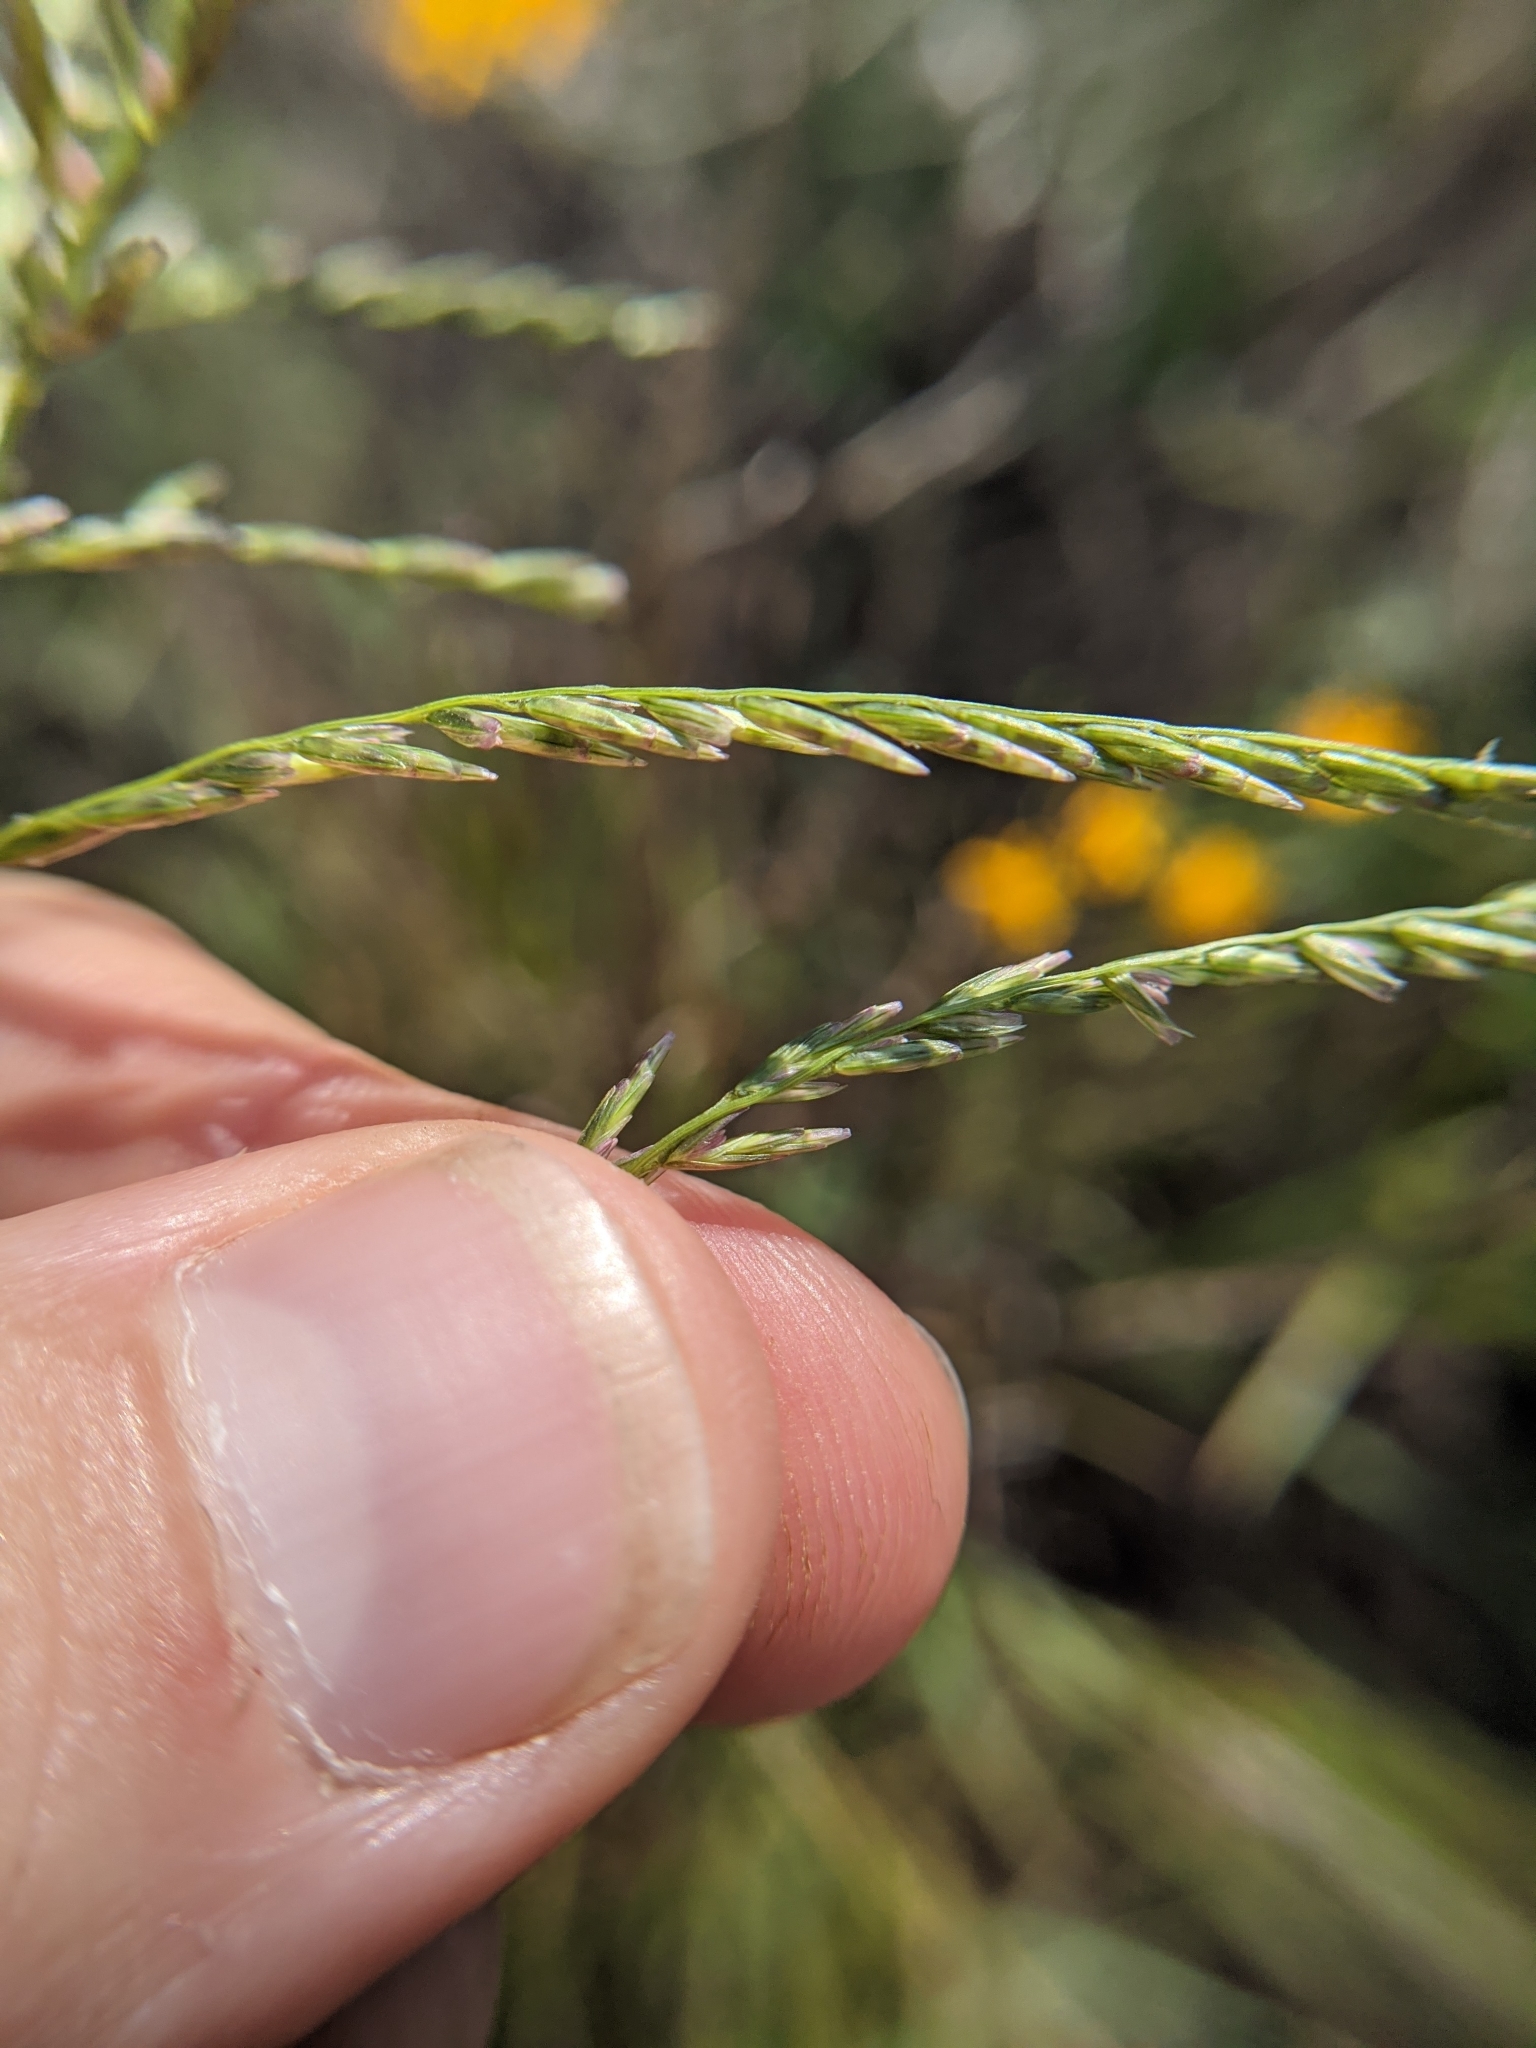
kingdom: Plantae
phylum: Tracheophyta
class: Liliopsida
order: Poales
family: Poaceae
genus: Disakisperma
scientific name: Disakisperma dubium
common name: Green sprangletop
